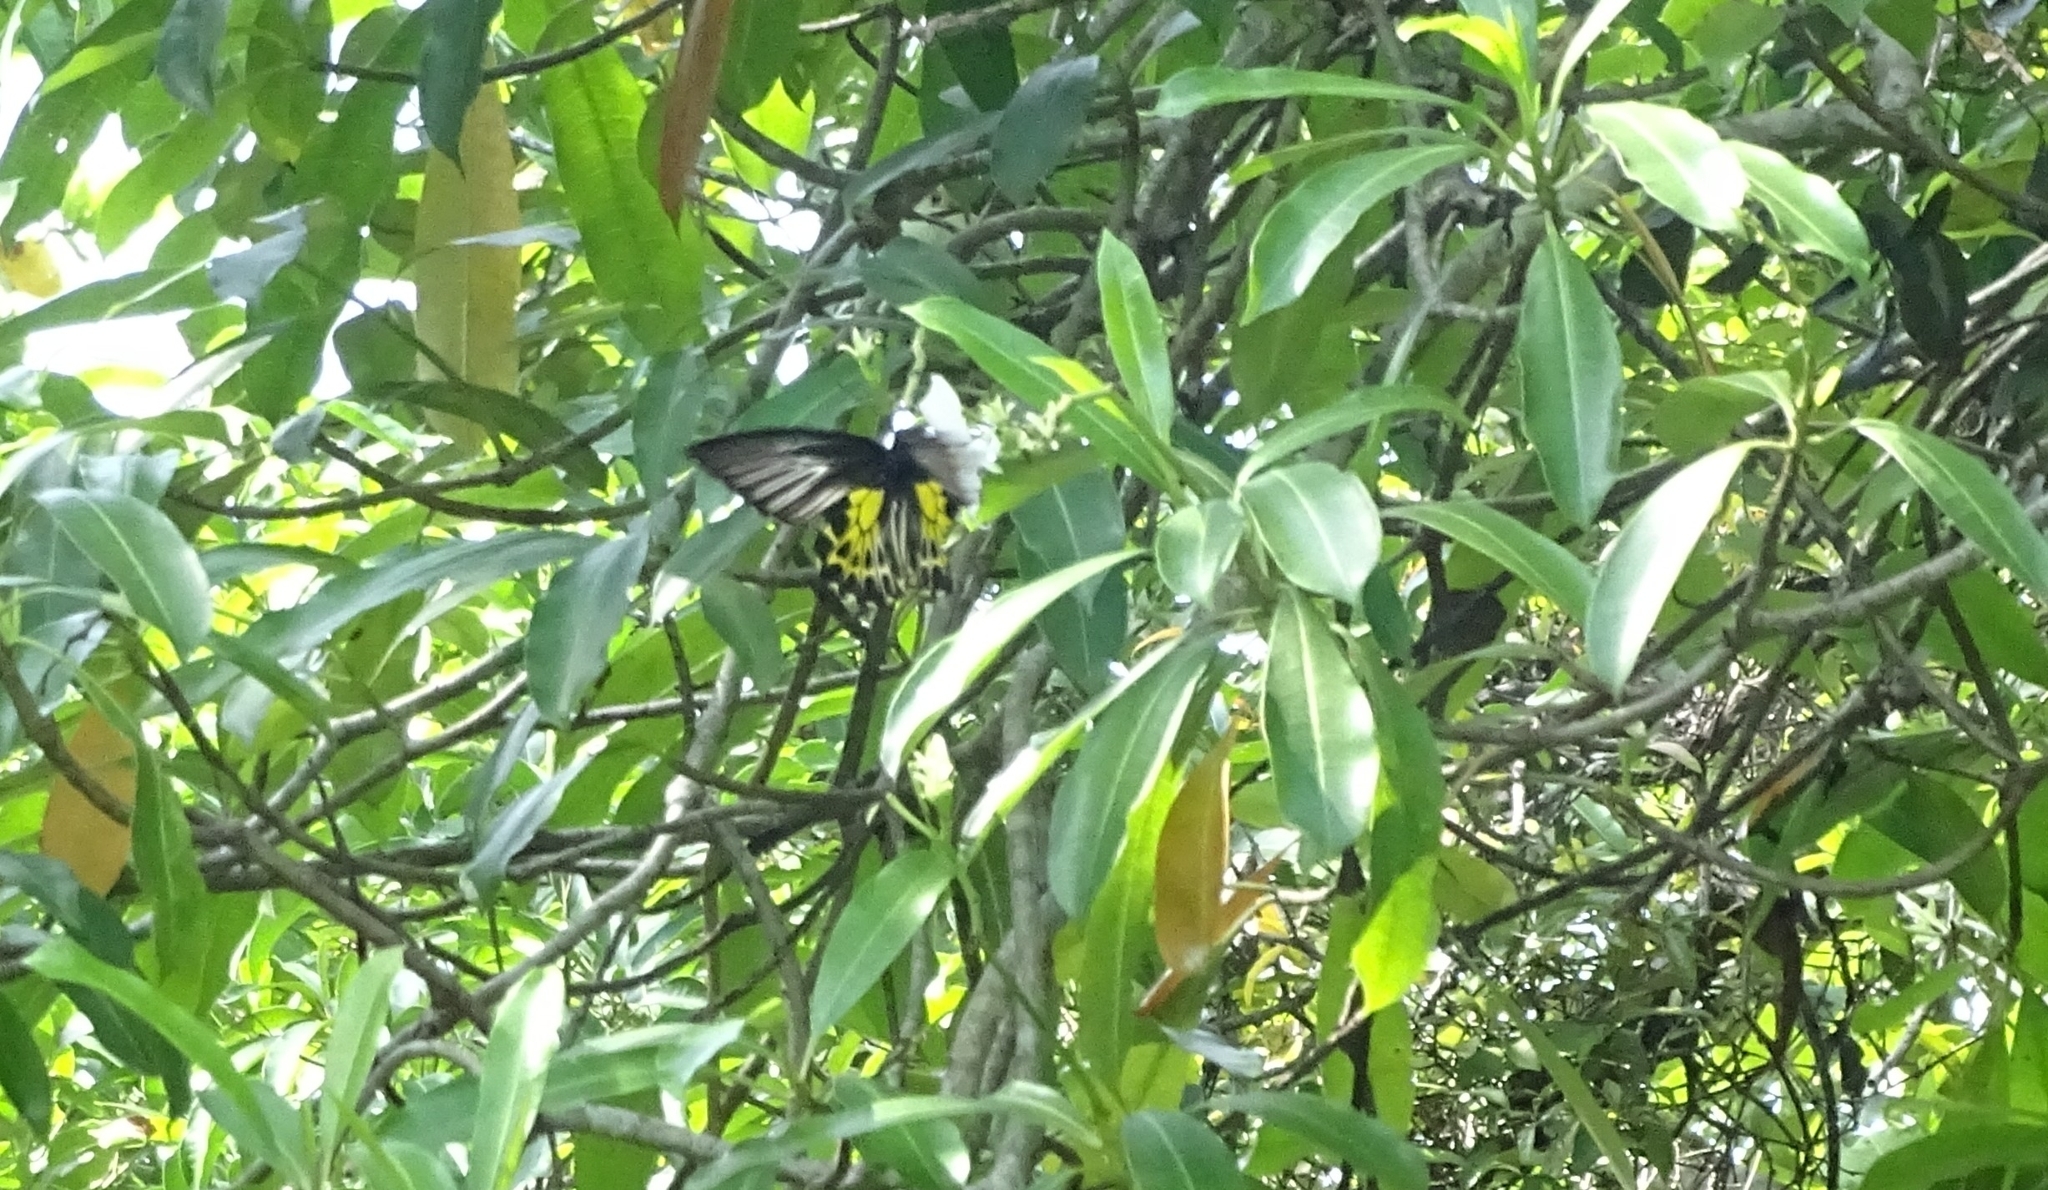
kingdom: Animalia
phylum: Arthropoda
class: Insecta
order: Lepidoptera
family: Papilionidae
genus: Troides
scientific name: Troides minos
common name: Malabar birdwing
